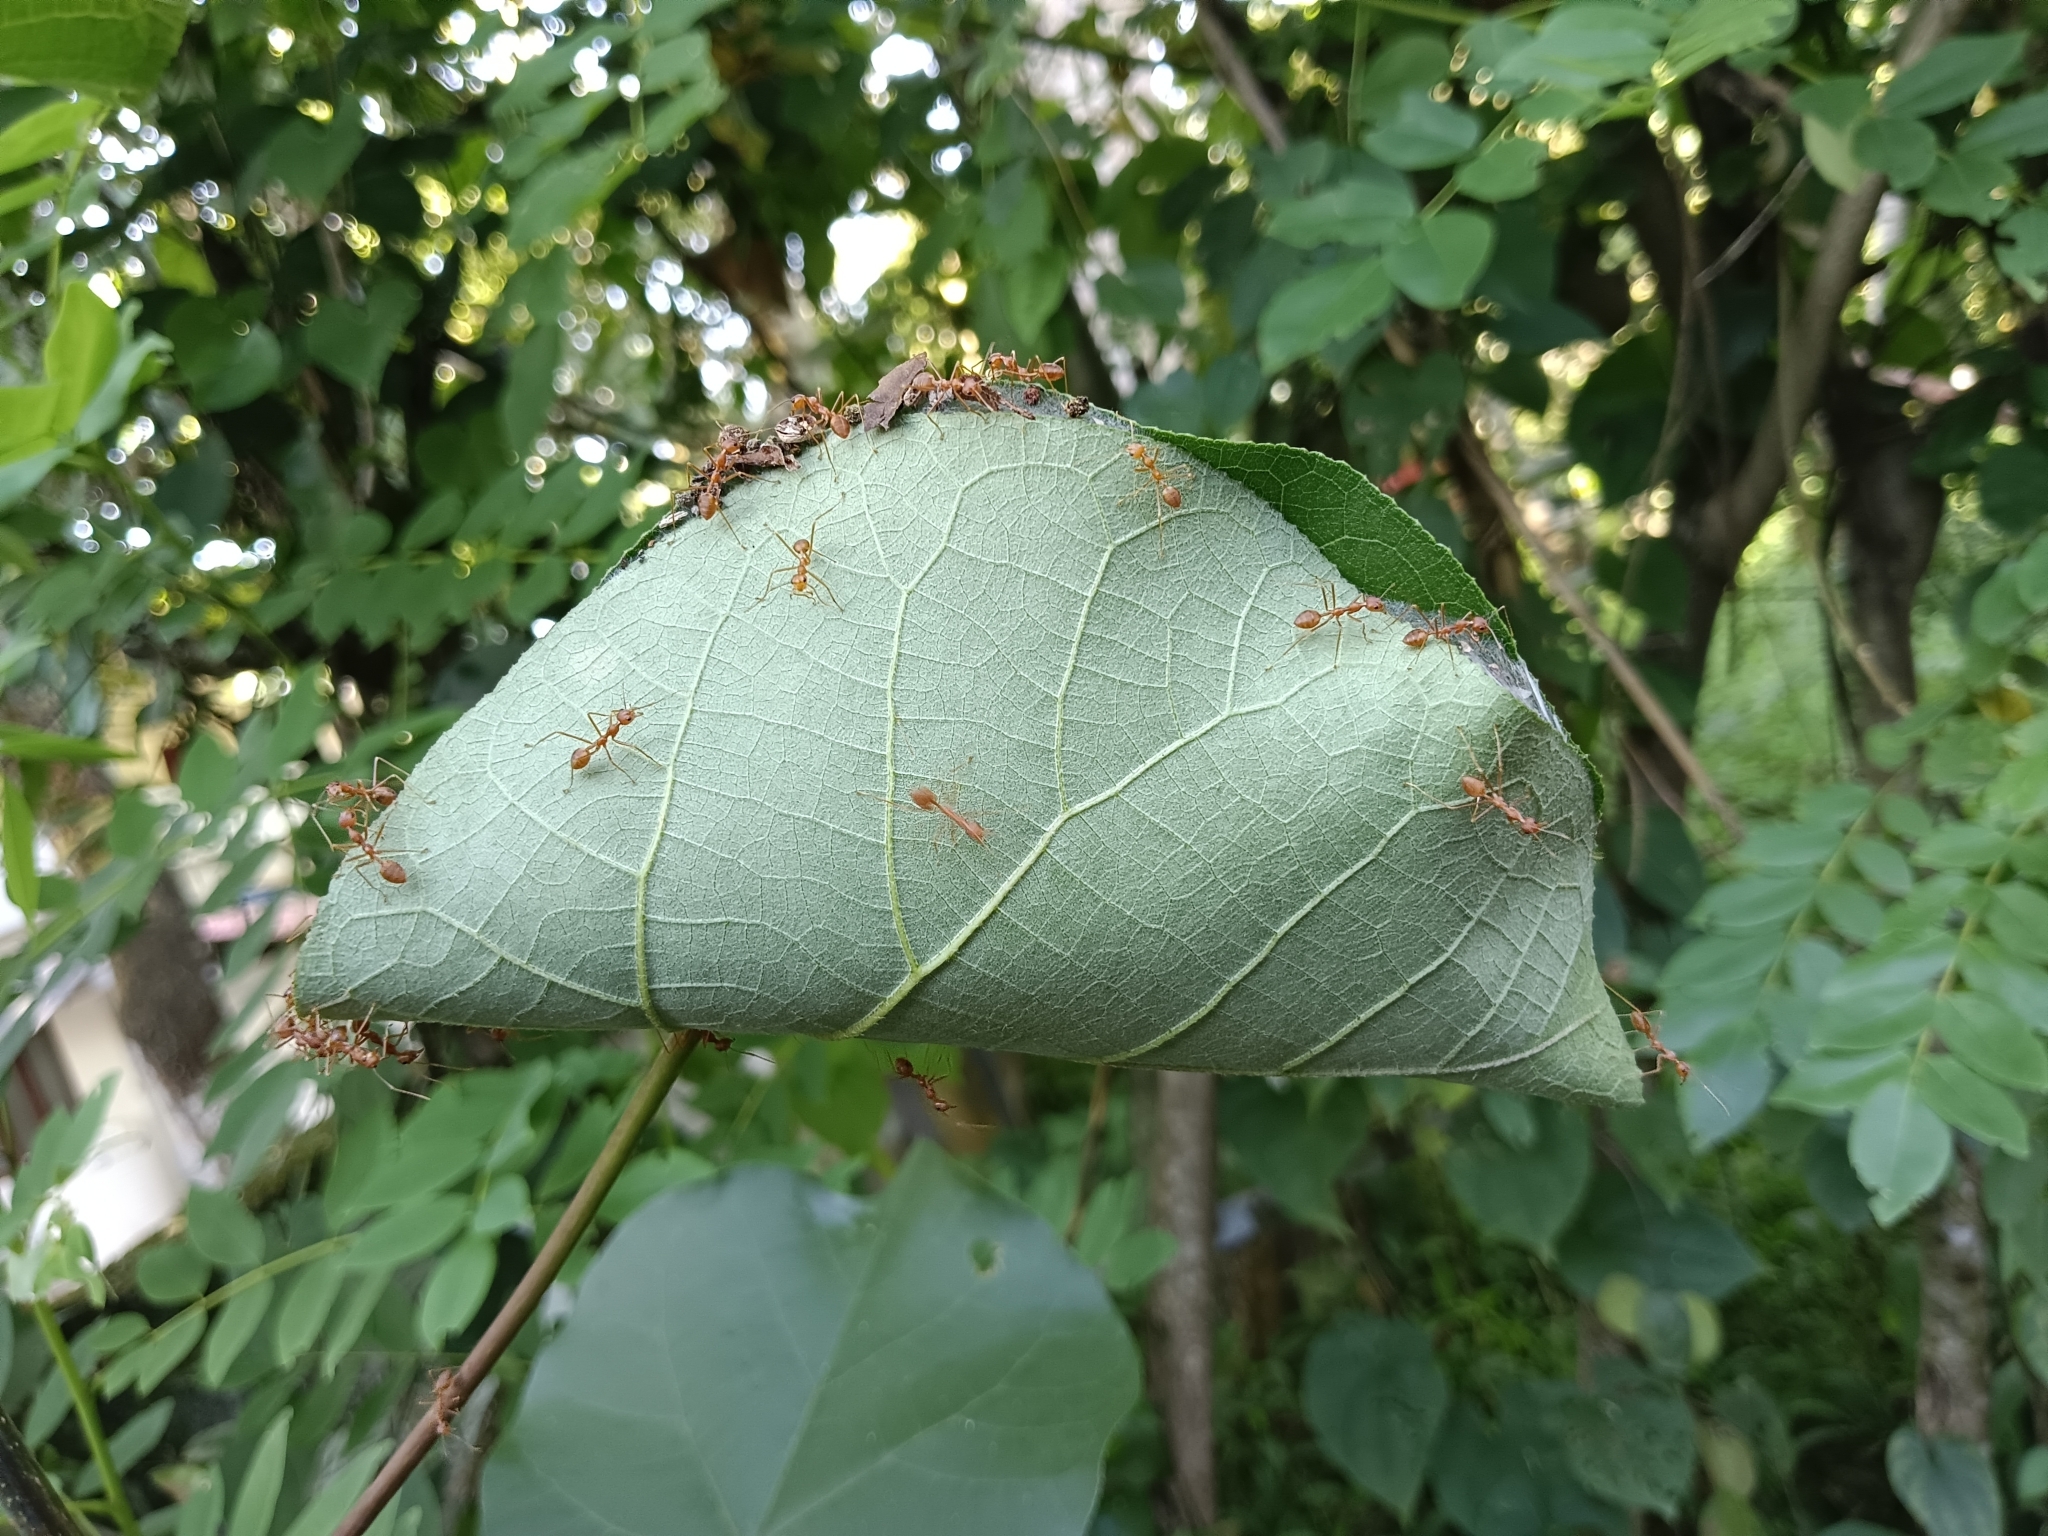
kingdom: Animalia
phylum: Arthropoda
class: Insecta
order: Hymenoptera
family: Formicidae
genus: Oecophylla
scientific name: Oecophylla smaragdina
